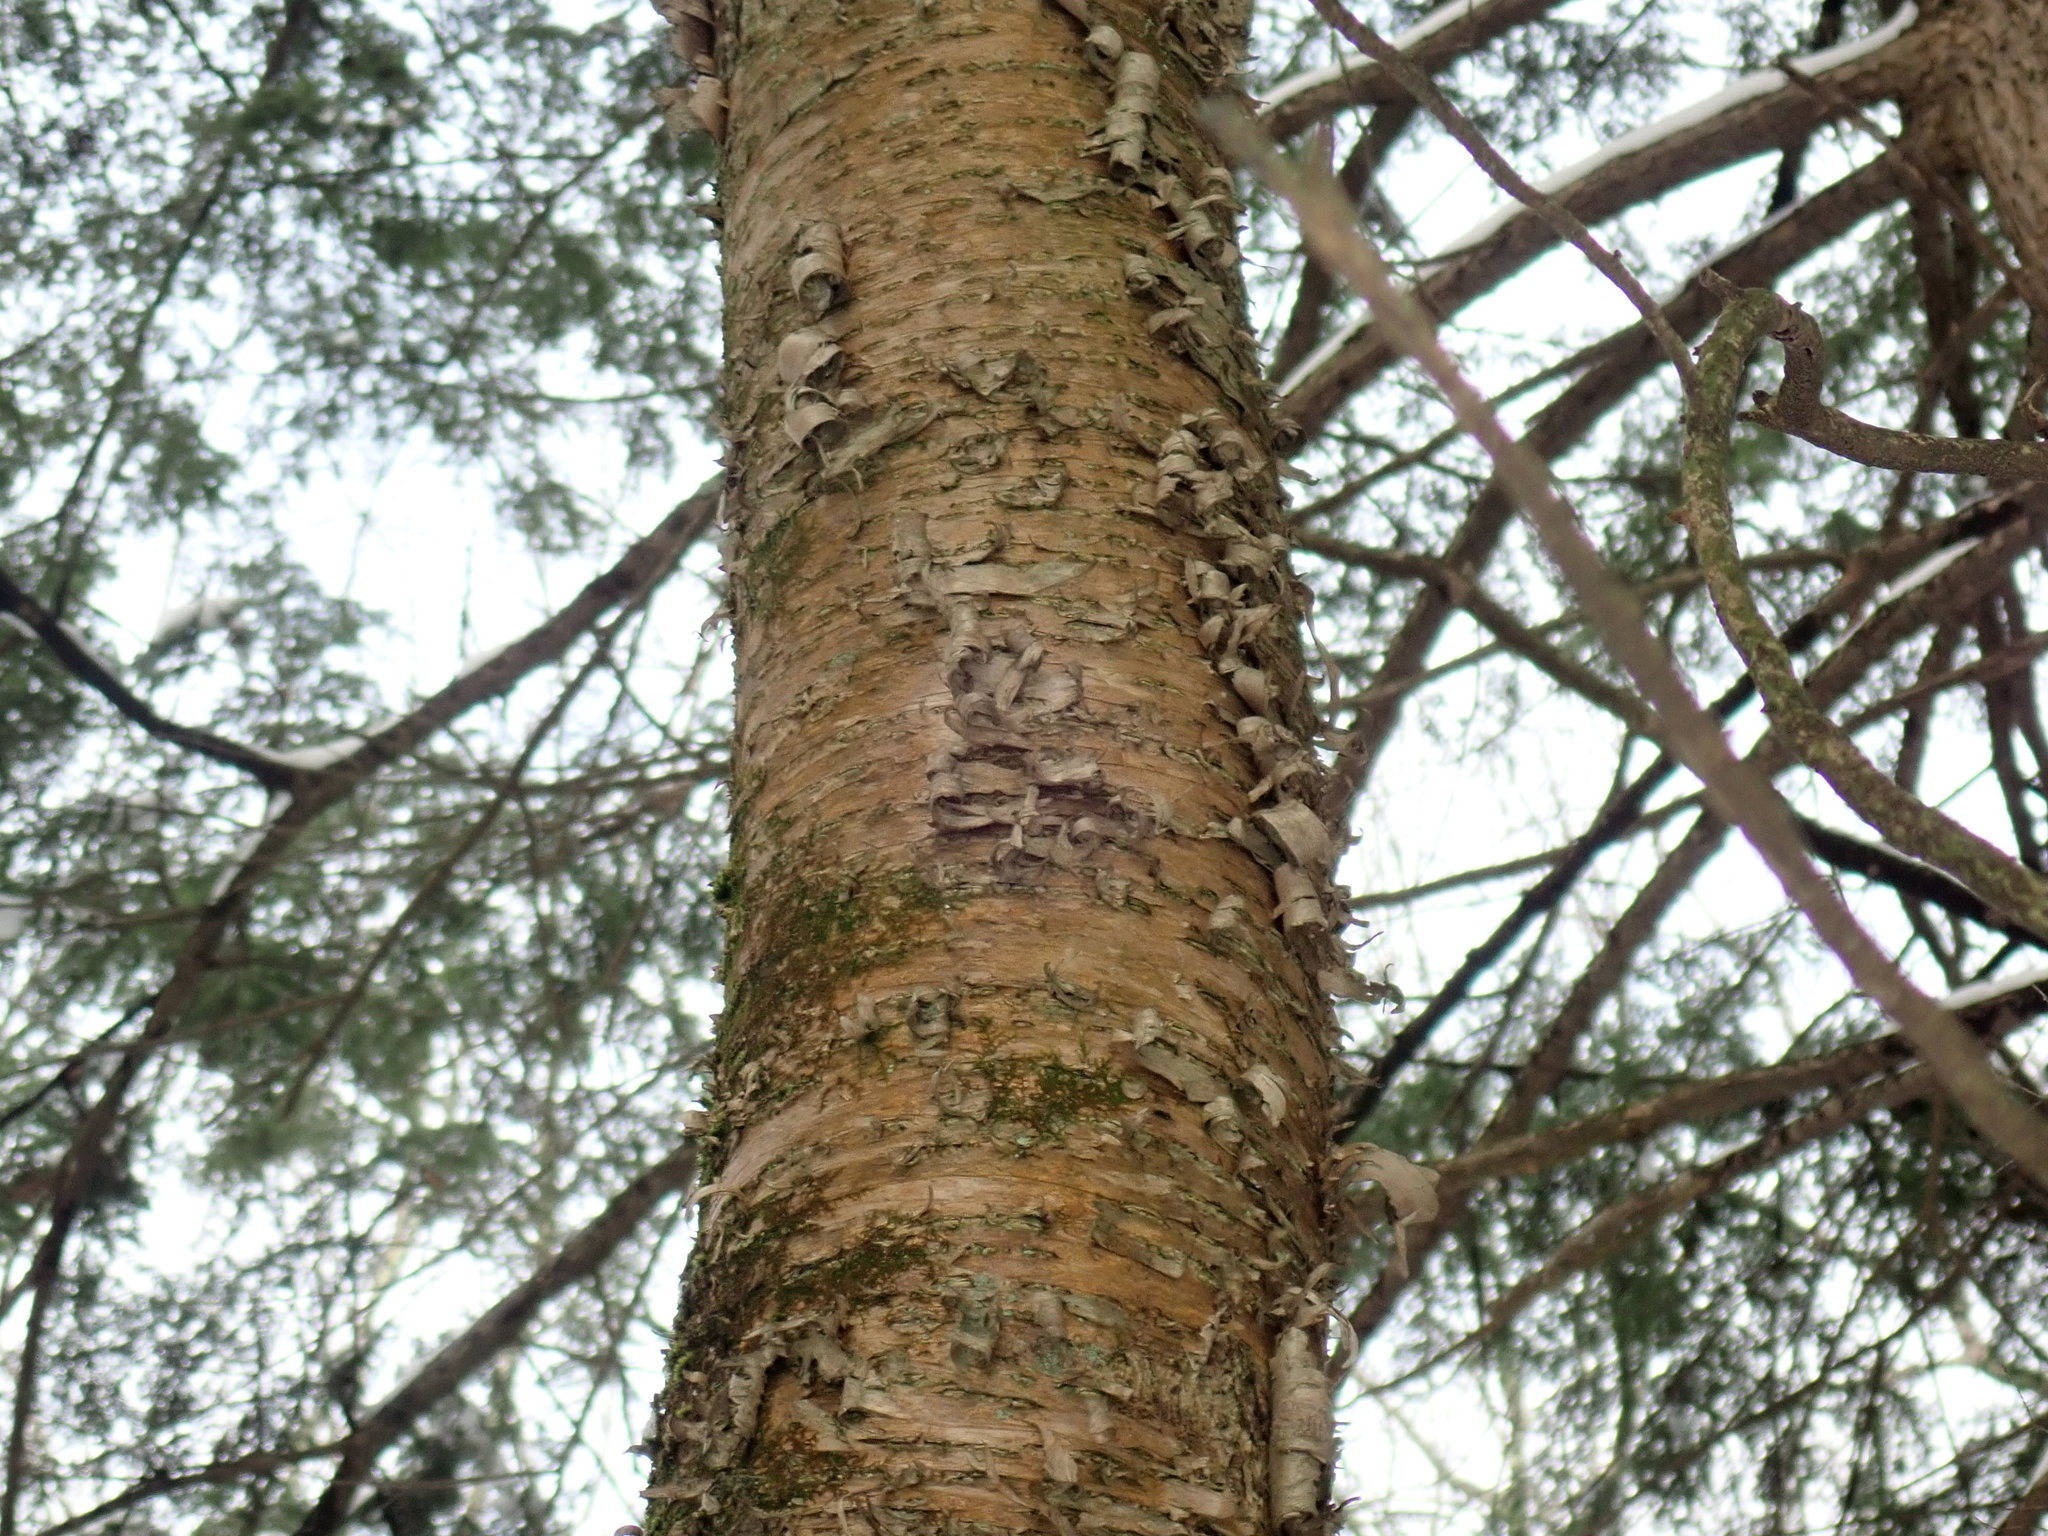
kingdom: Plantae
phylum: Tracheophyta
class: Magnoliopsida
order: Fagales
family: Betulaceae
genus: Betula
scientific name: Betula alleghaniensis
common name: Yellow birch
